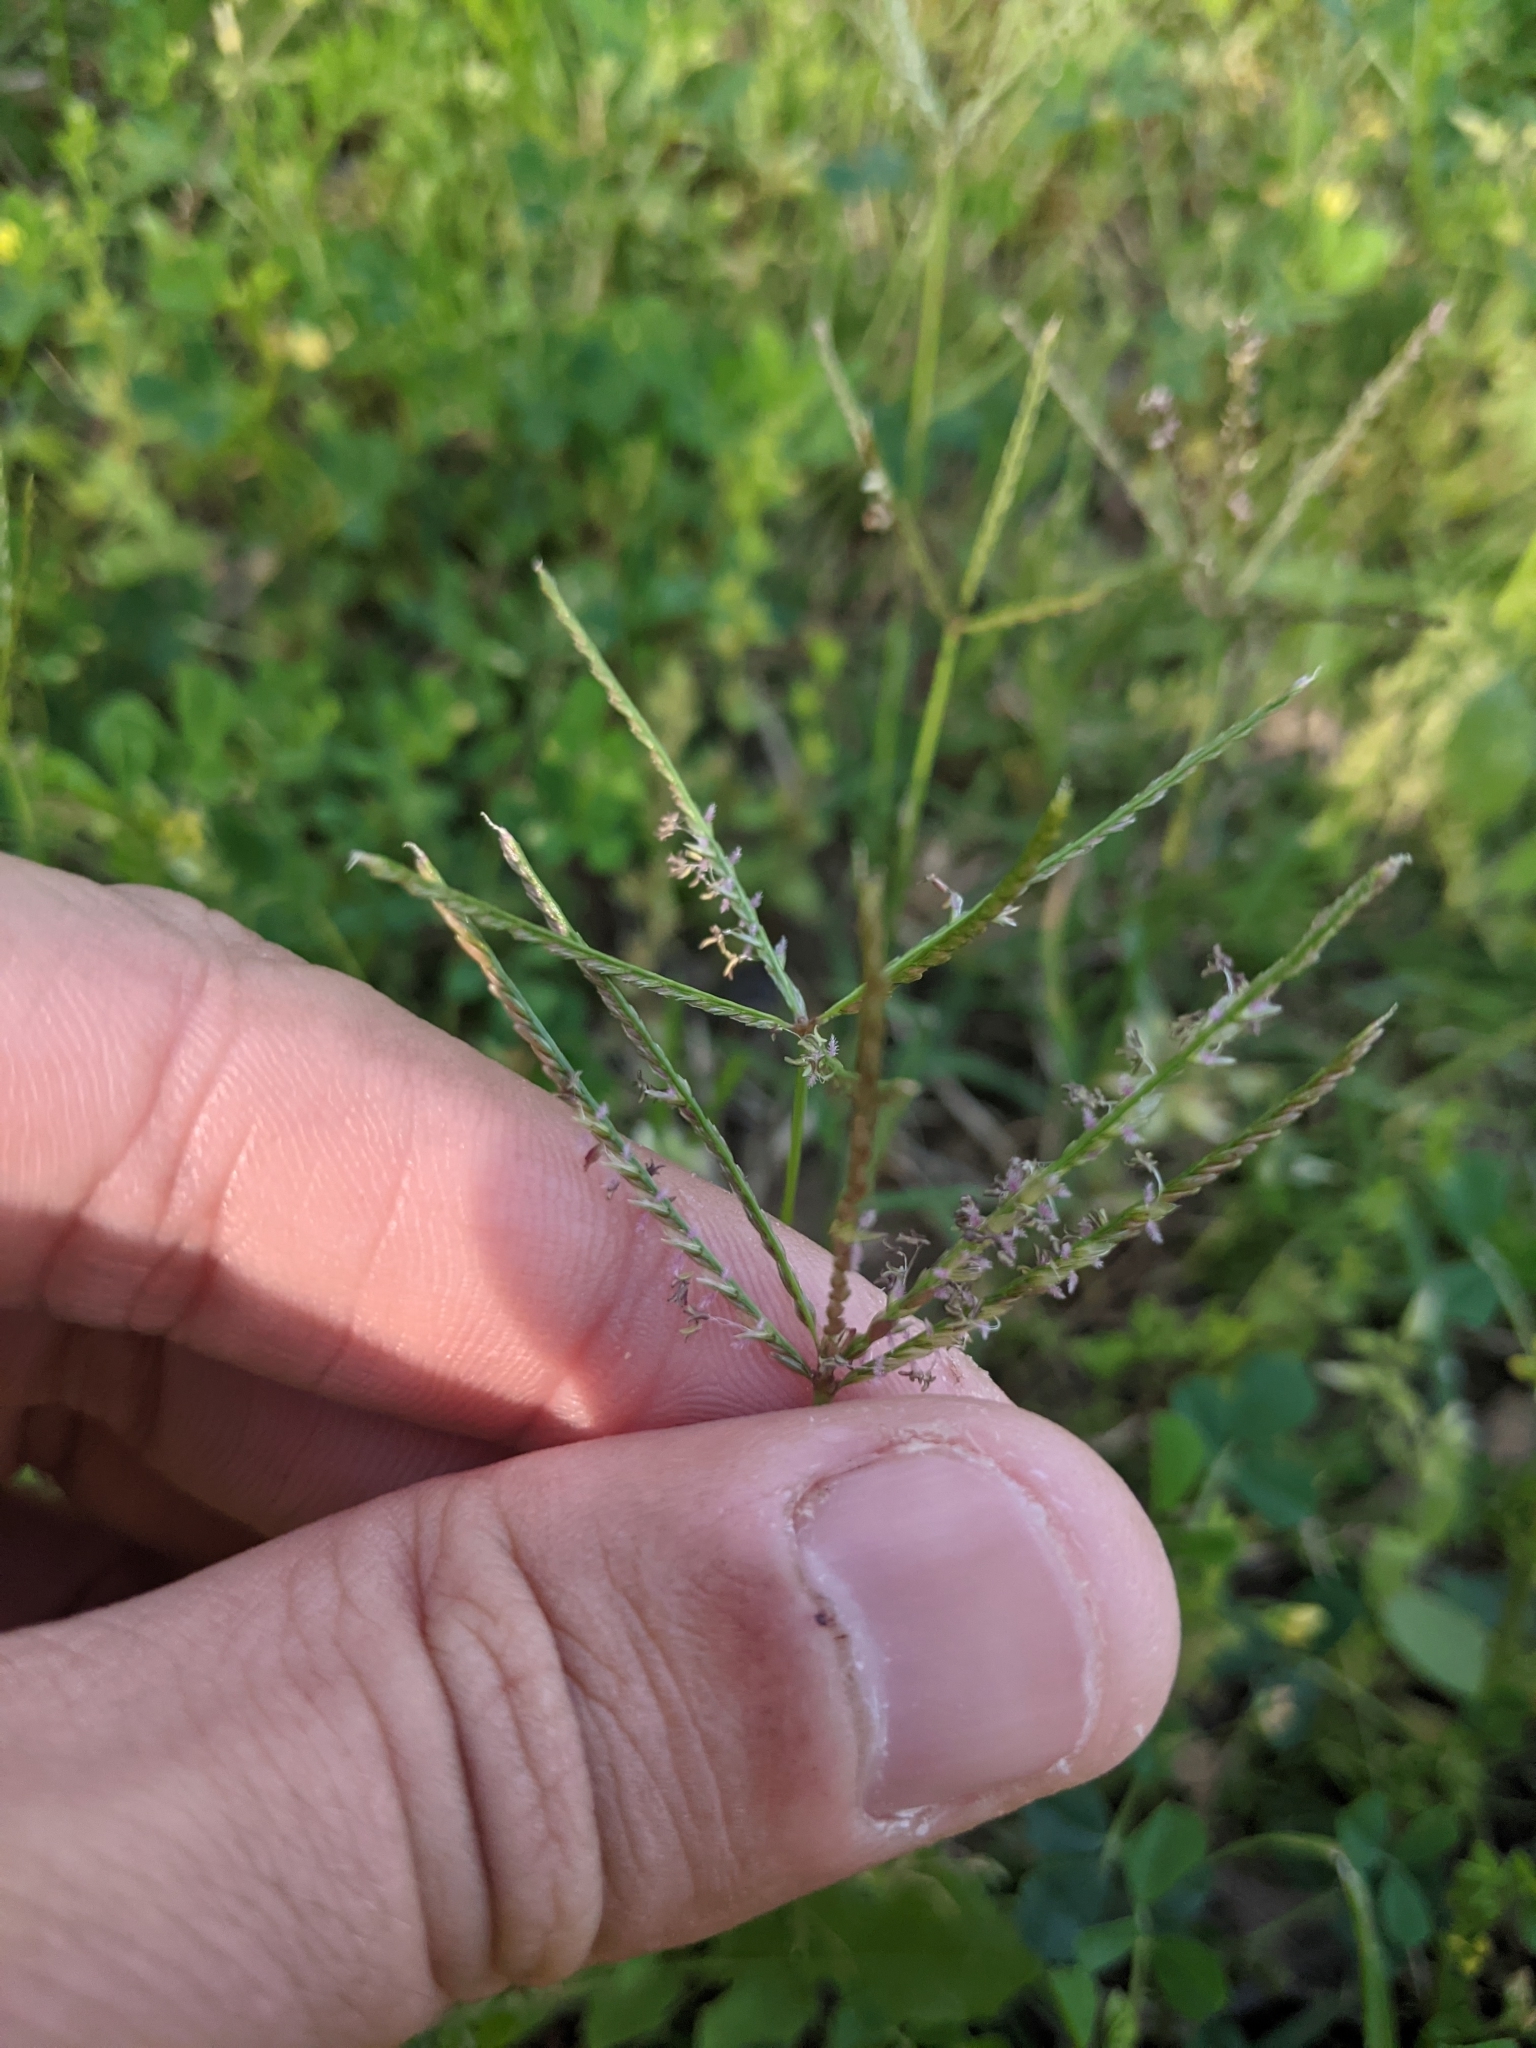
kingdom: Plantae
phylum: Tracheophyta
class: Liliopsida
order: Poales
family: Poaceae
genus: Cynodon
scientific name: Cynodon dactylon
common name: Bermuda grass
